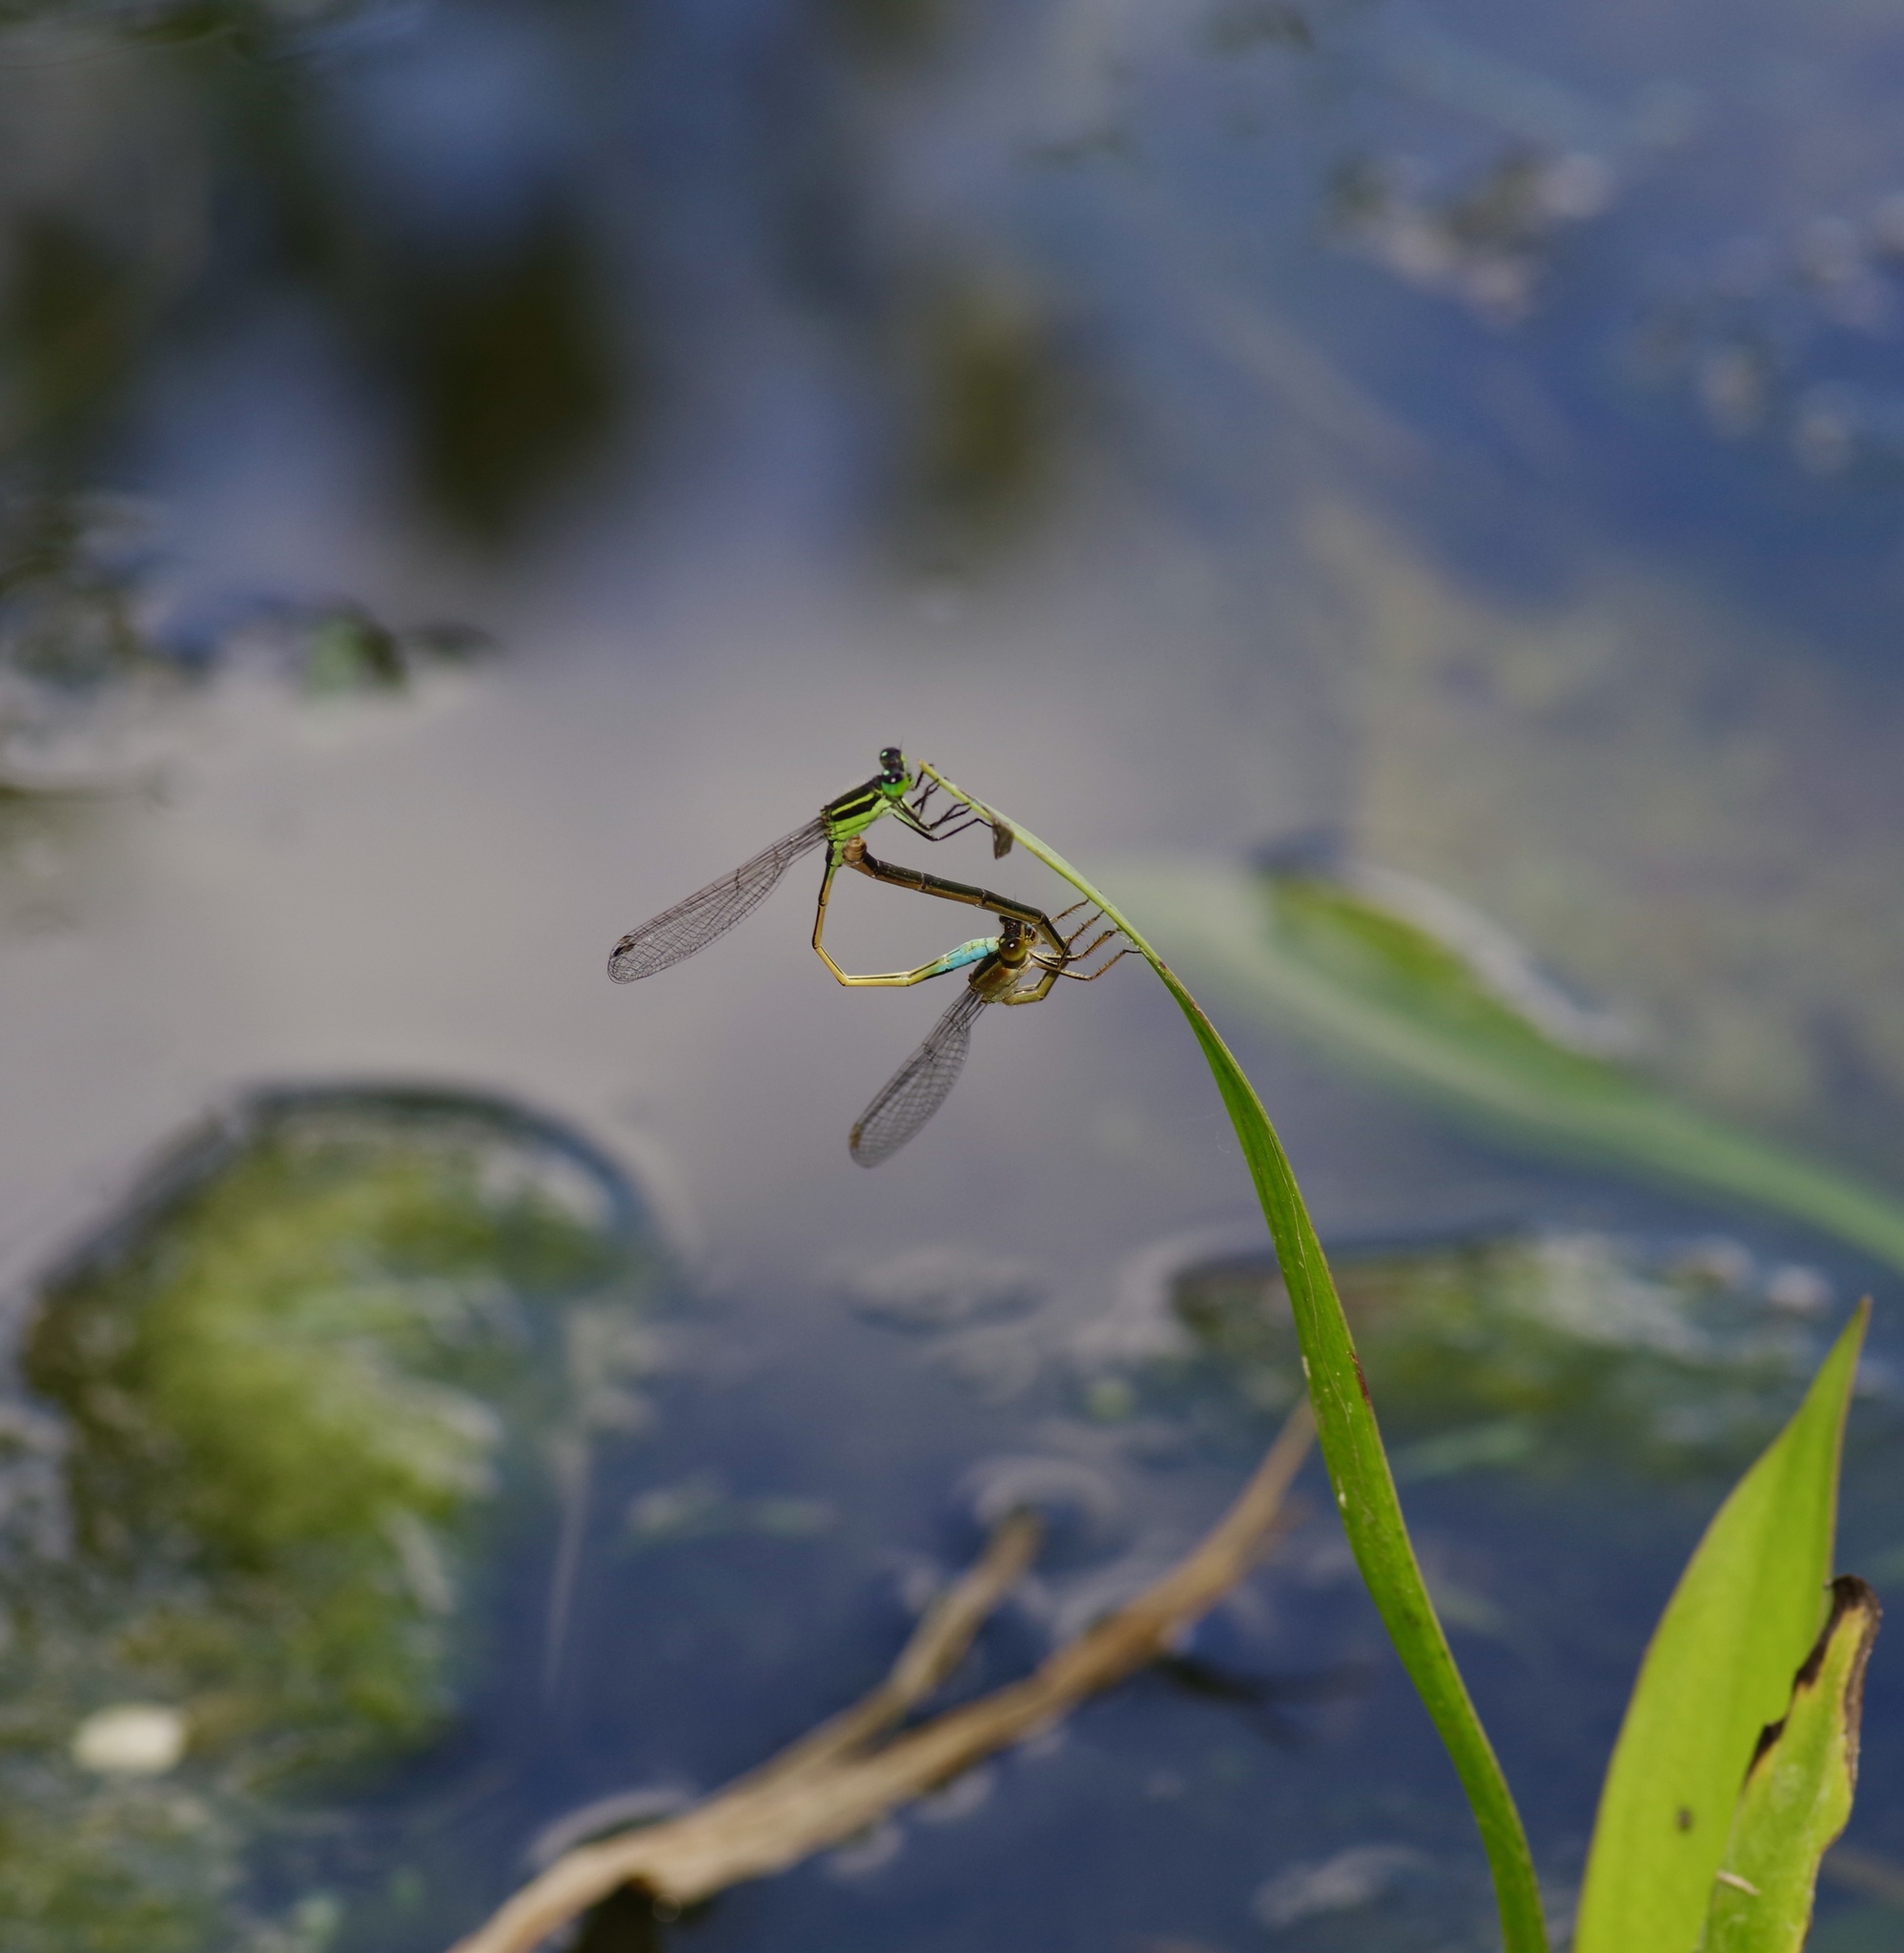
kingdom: Animalia
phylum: Arthropoda
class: Insecta
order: Odonata
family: Coenagrionidae
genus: Ischnura
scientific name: Ischnura ramburii
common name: Rambur's forktail
